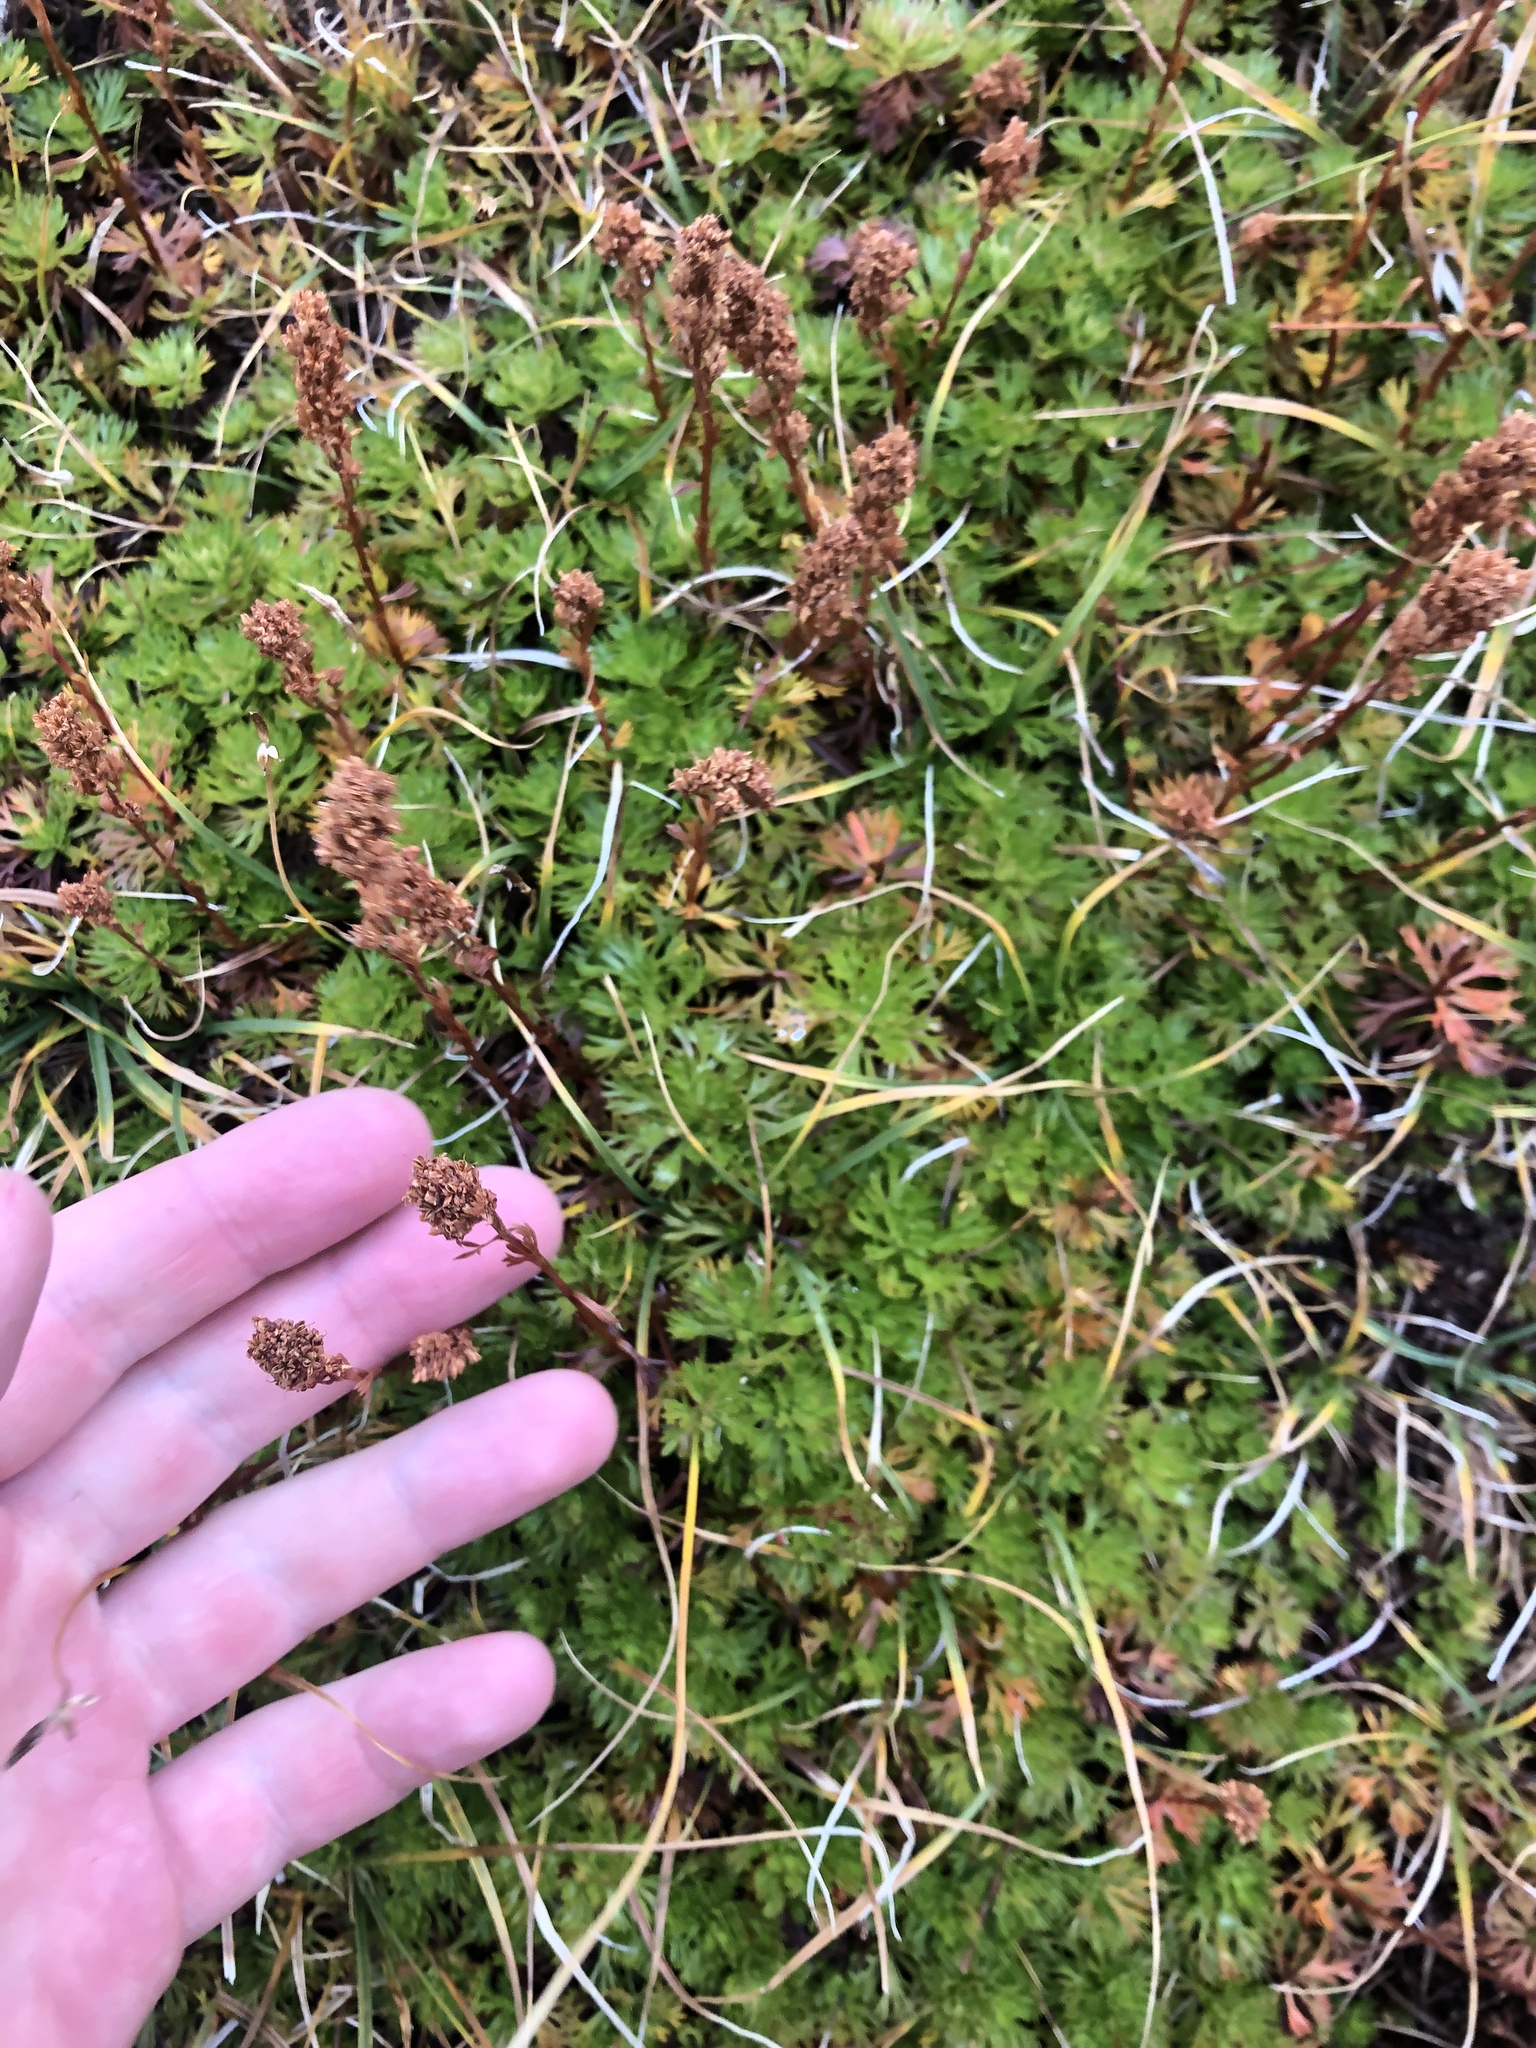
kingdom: Plantae
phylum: Tracheophyta
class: Magnoliopsida
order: Rosales
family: Rosaceae
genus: Luetkea
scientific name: Luetkea pectinata
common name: Partridgefoot
